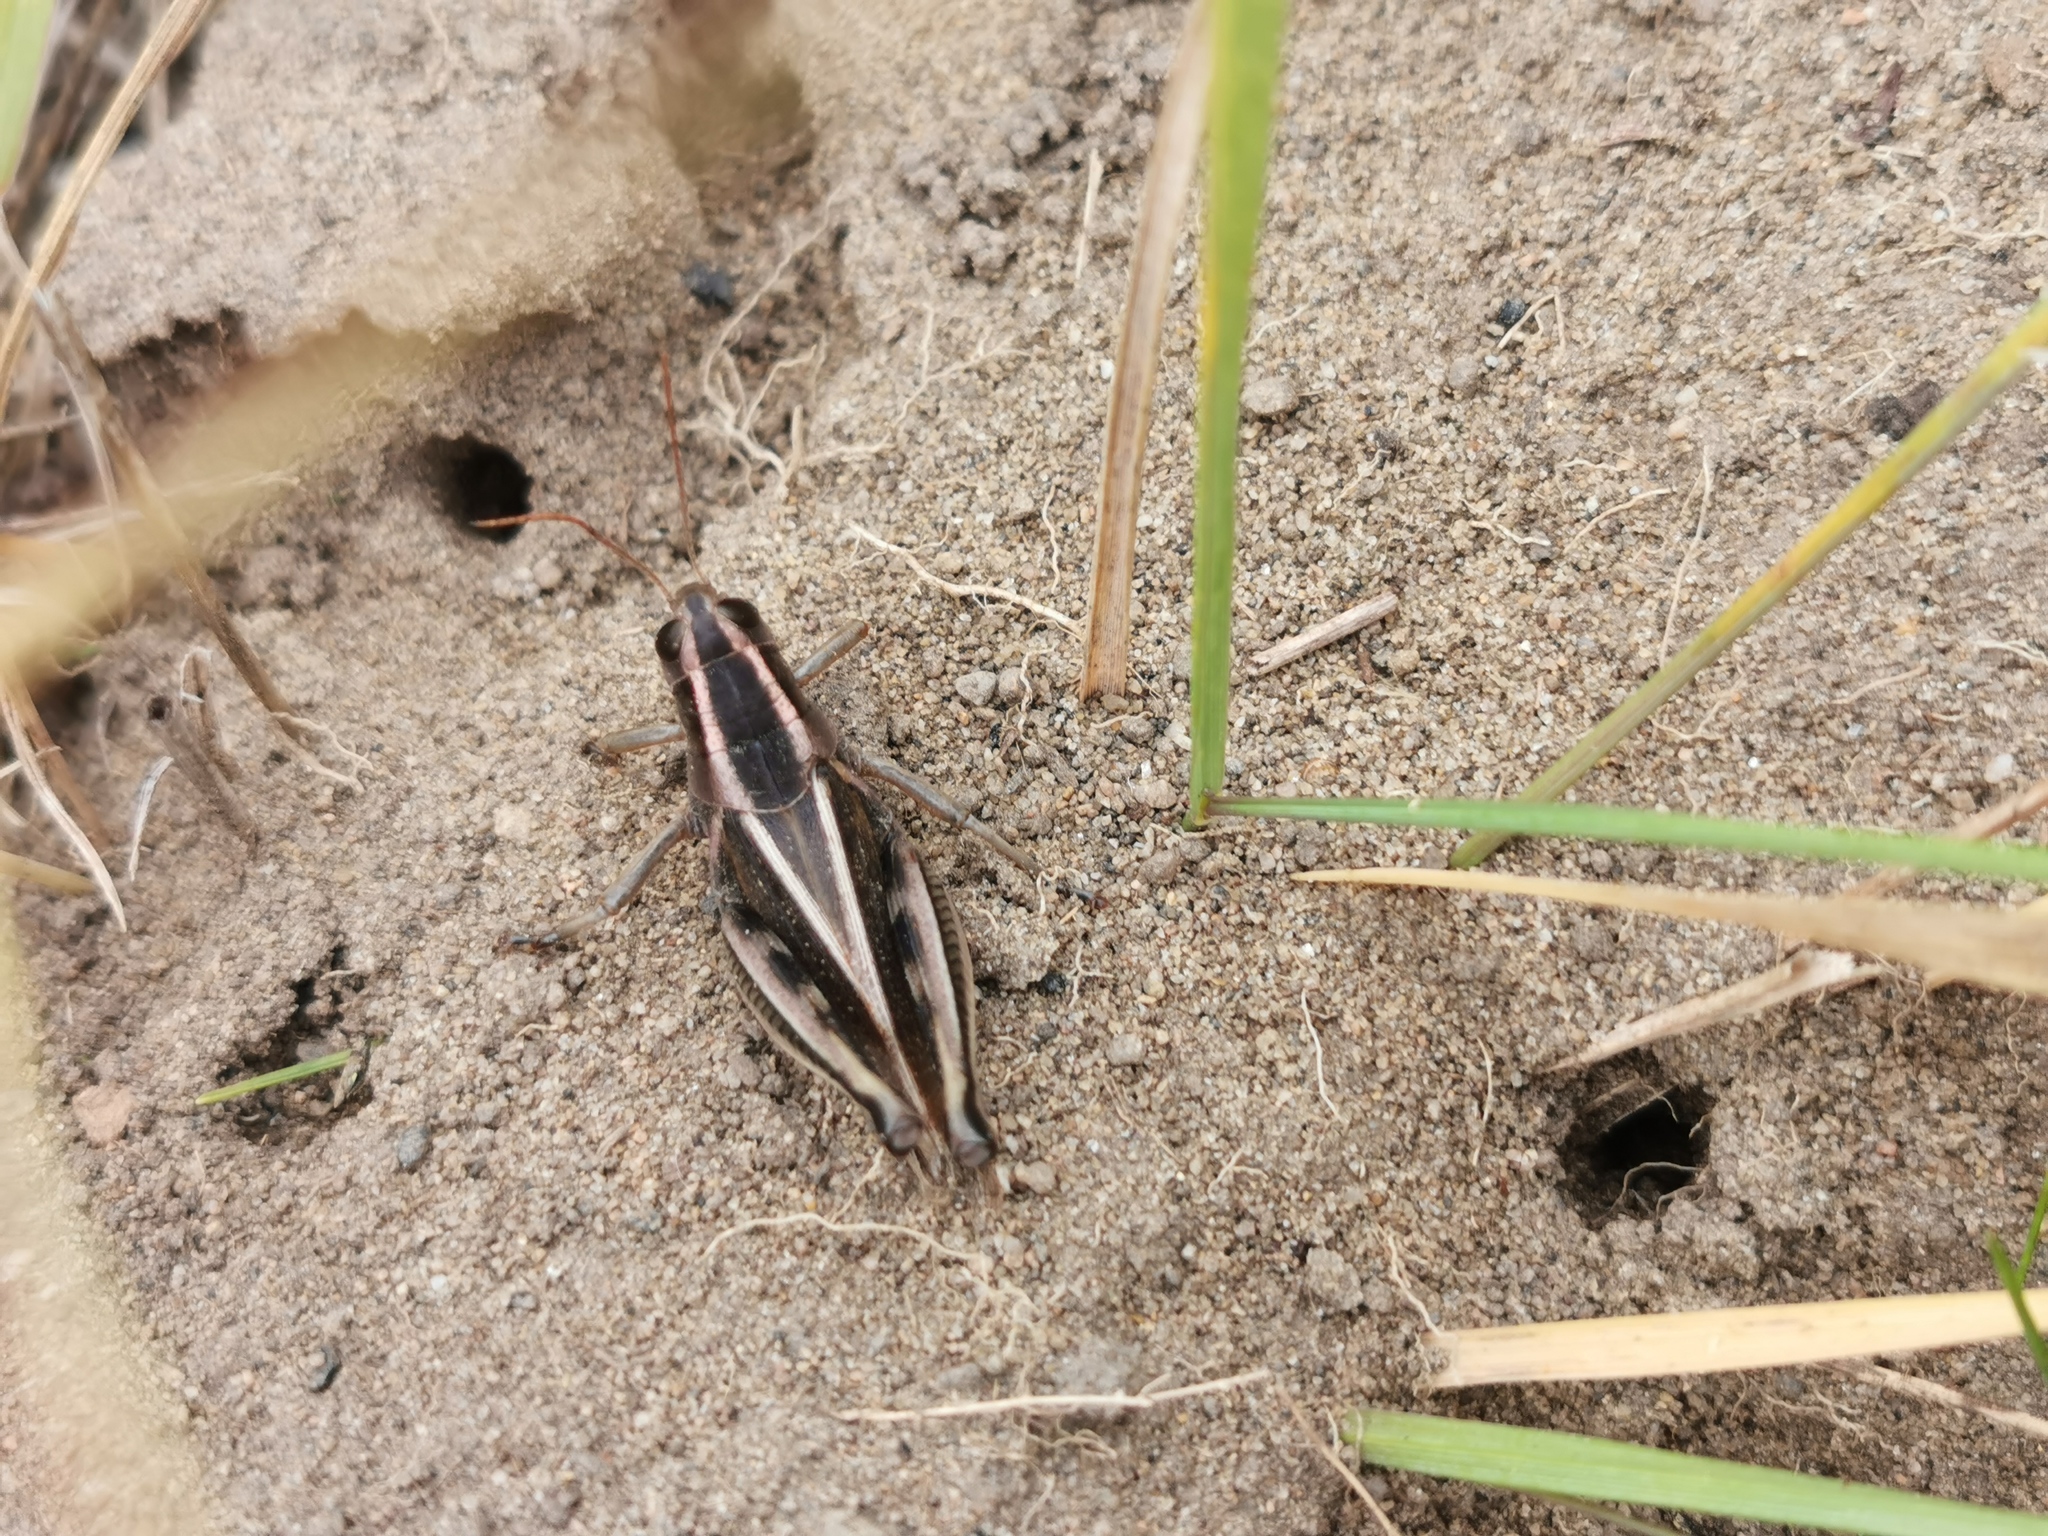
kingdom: Animalia
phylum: Arthropoda
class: Insecta
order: Orthoptera
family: Acrididae
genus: Melanoplus
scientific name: Melanoplus bivittatus
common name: Two-striped grasshopper
